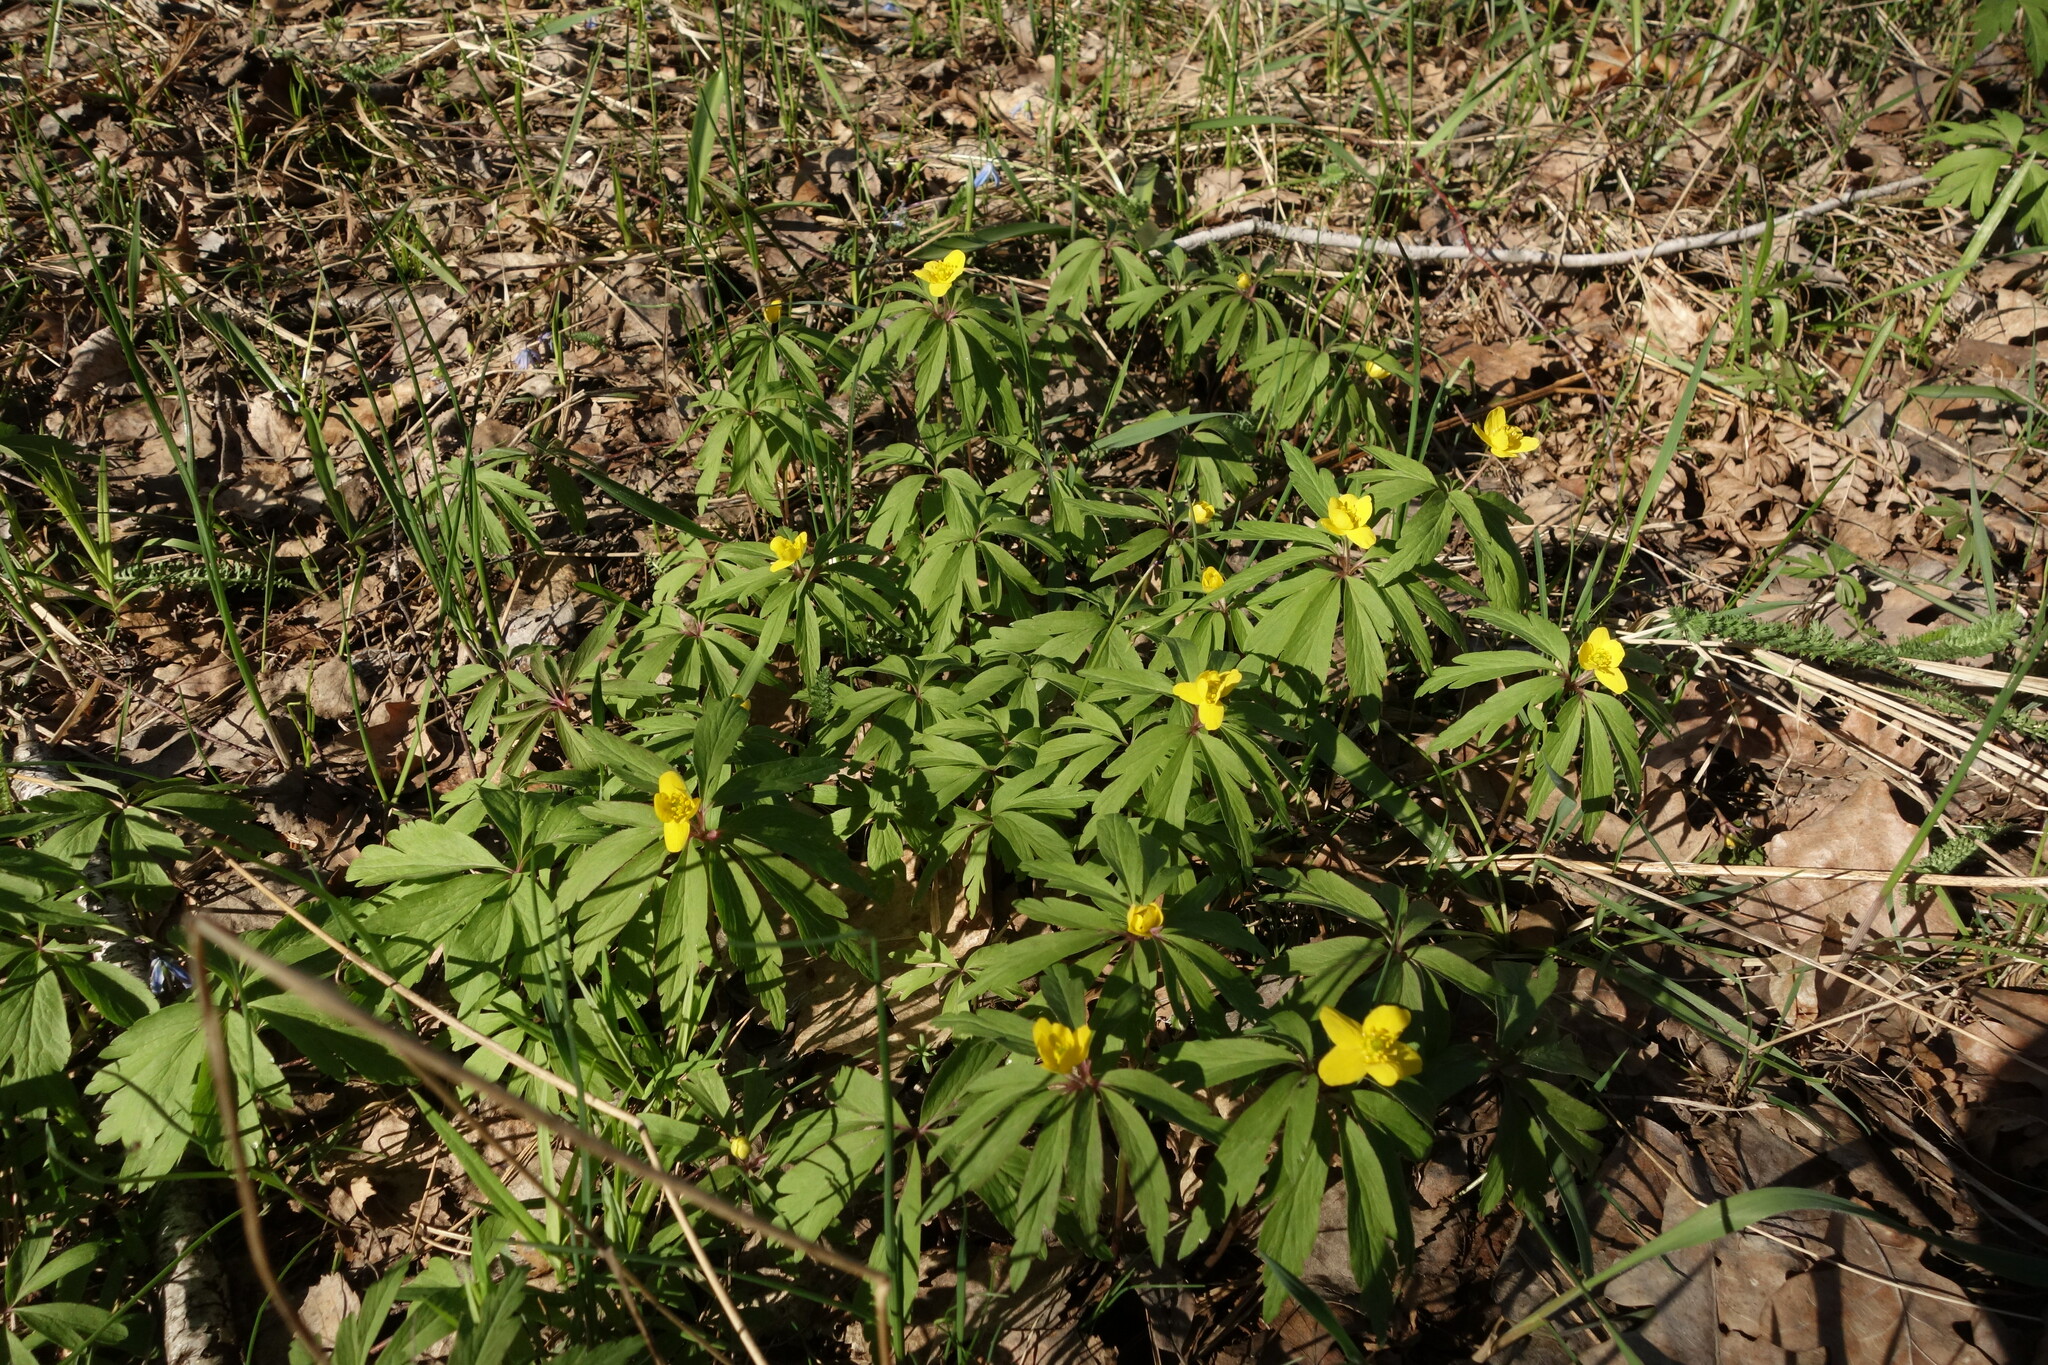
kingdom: Plantae
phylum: Tracheophyta
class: Magnoliopsida
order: Ranunculales
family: Ranunculaceae
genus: Anemone
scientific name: Anemone ranunculoides
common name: Yellow anemone
